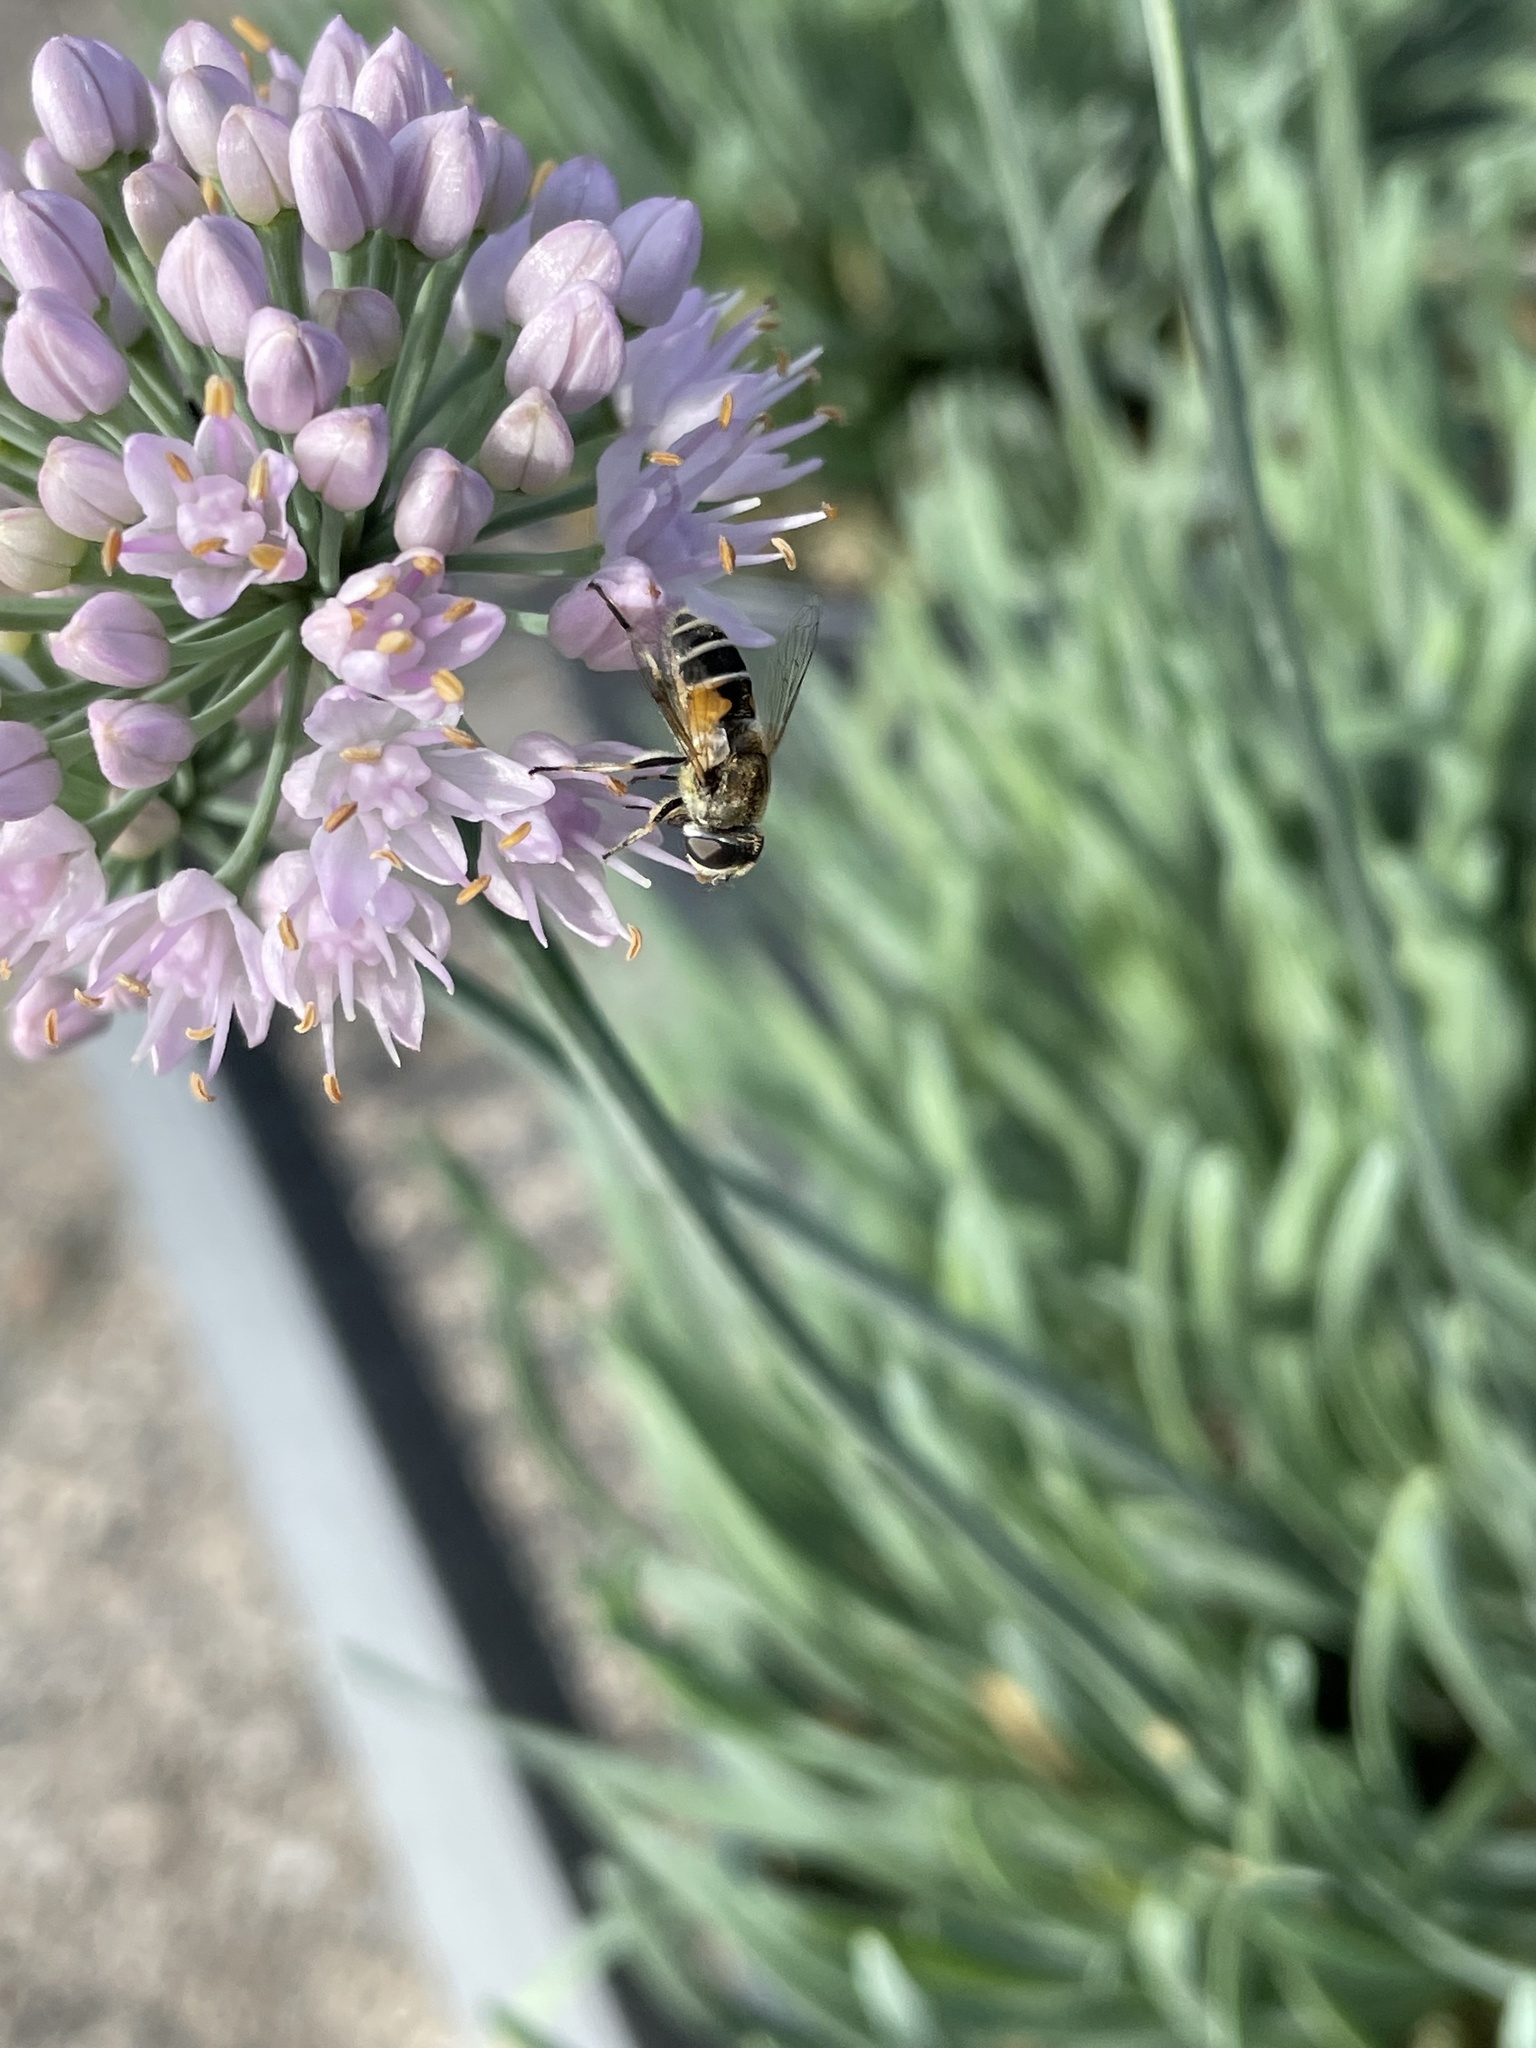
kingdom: Animalia
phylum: Arthropoda
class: Insecta
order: Diptera
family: Syrphidae
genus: Eristalis
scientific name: Eristalis arbustorum
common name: Hover fly
